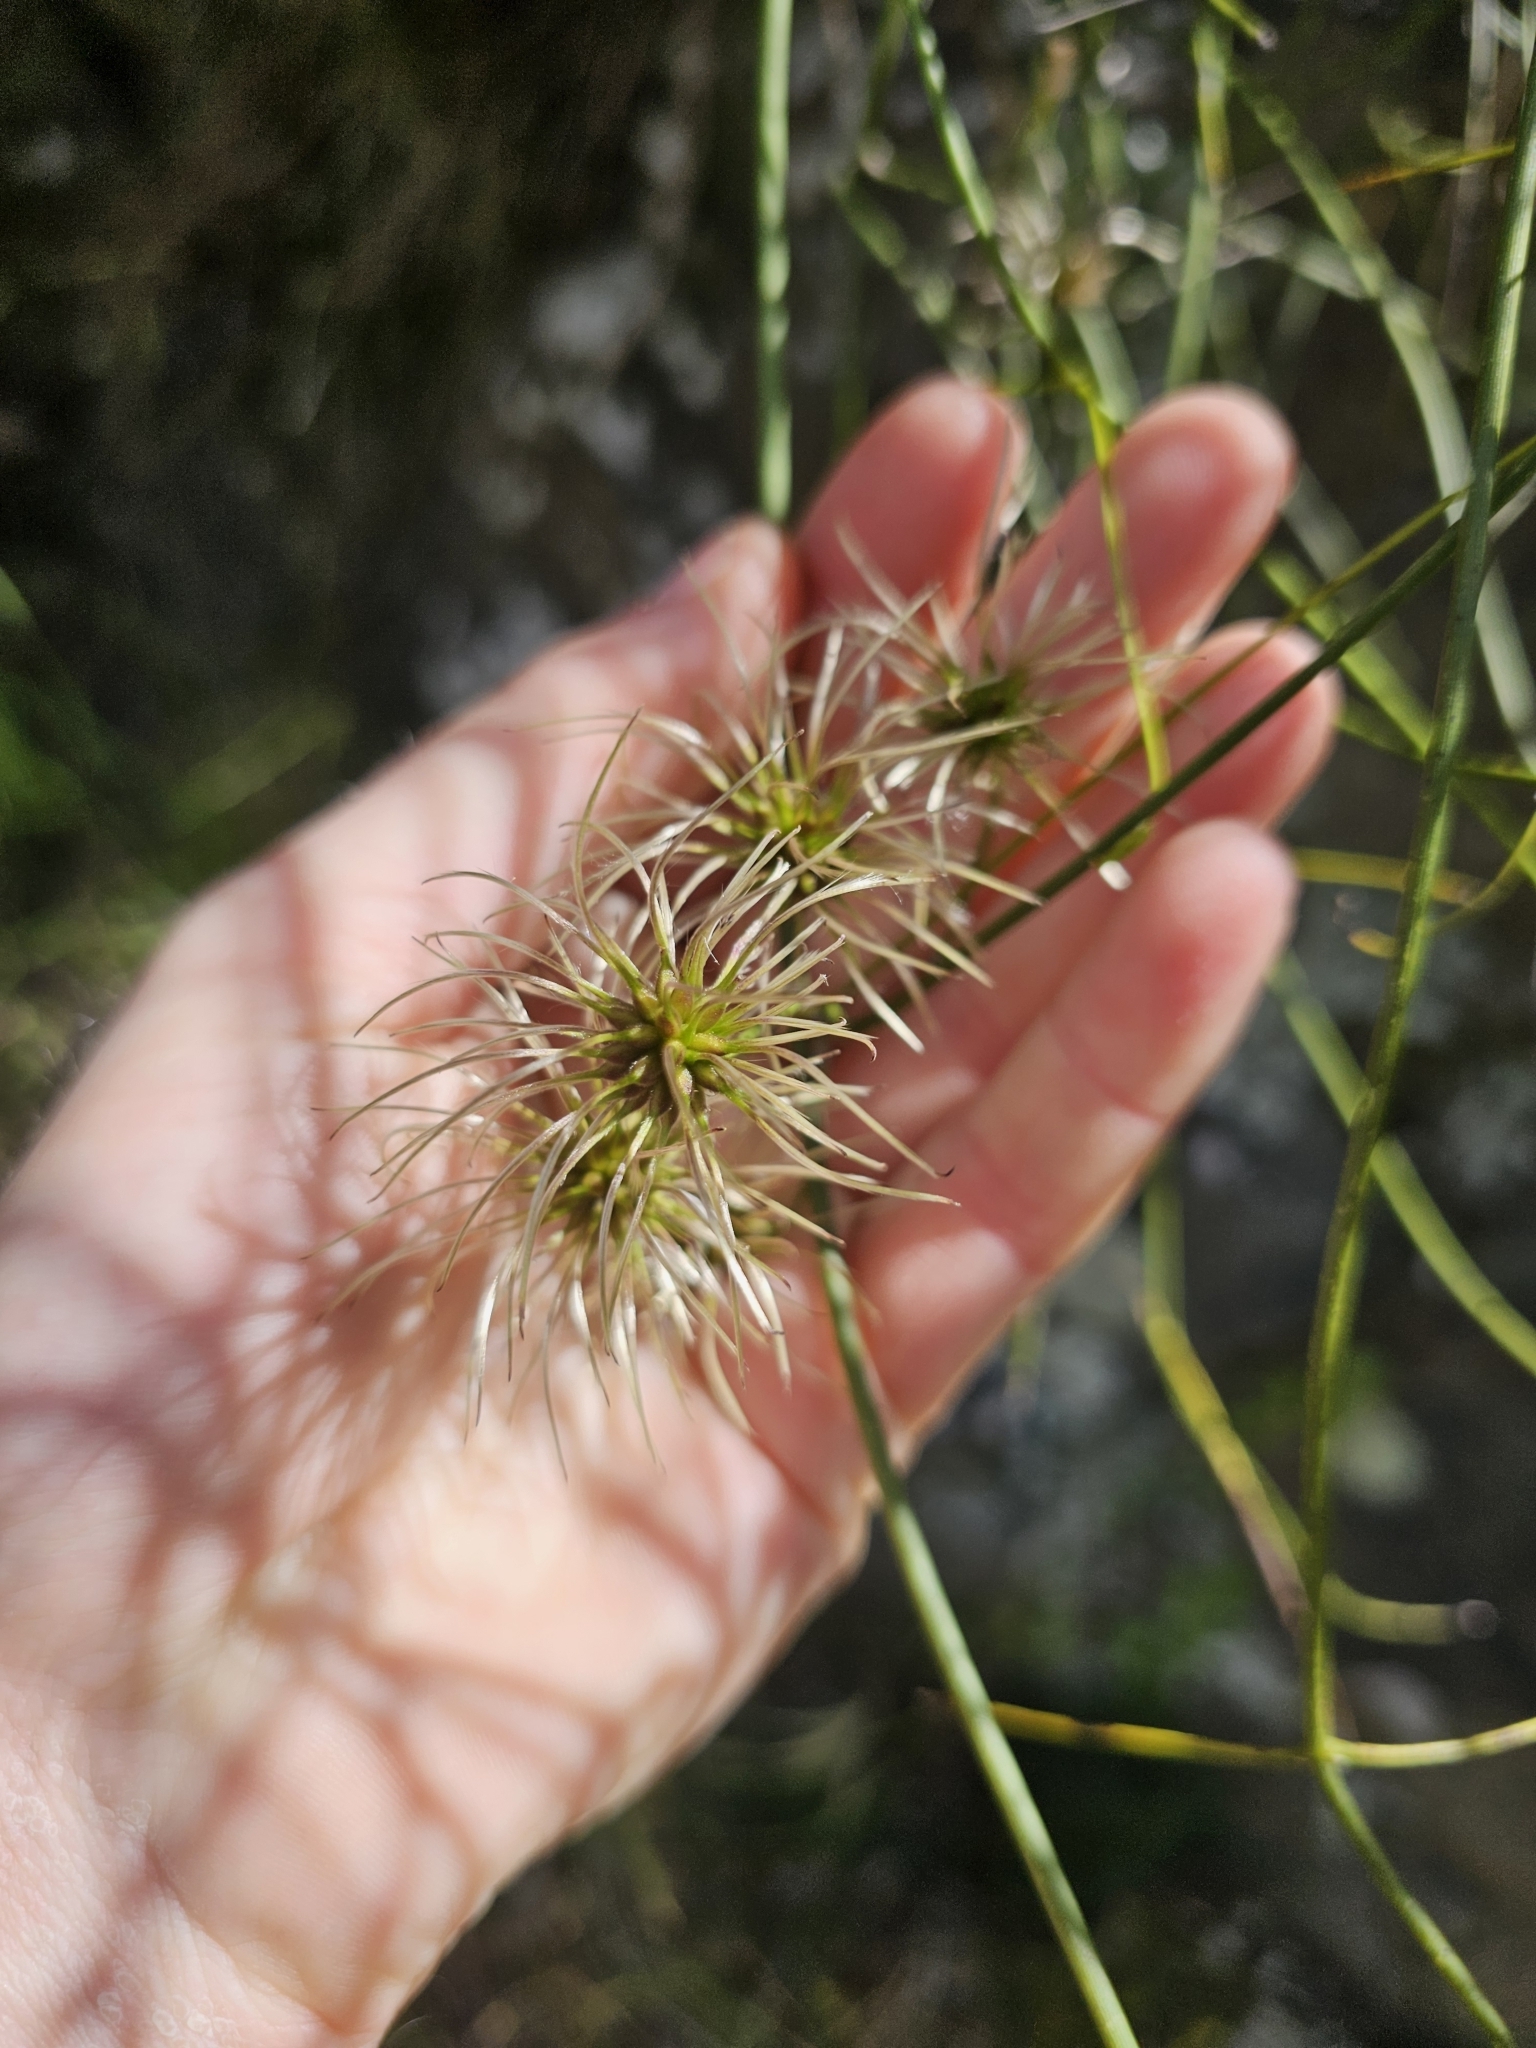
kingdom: Plantae
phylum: Tracheophyta
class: Magnoliopsida
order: Ranunculales
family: Ranunculaceae
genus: Clematis
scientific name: Clematis afoliata
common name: Rush-stem clematis
